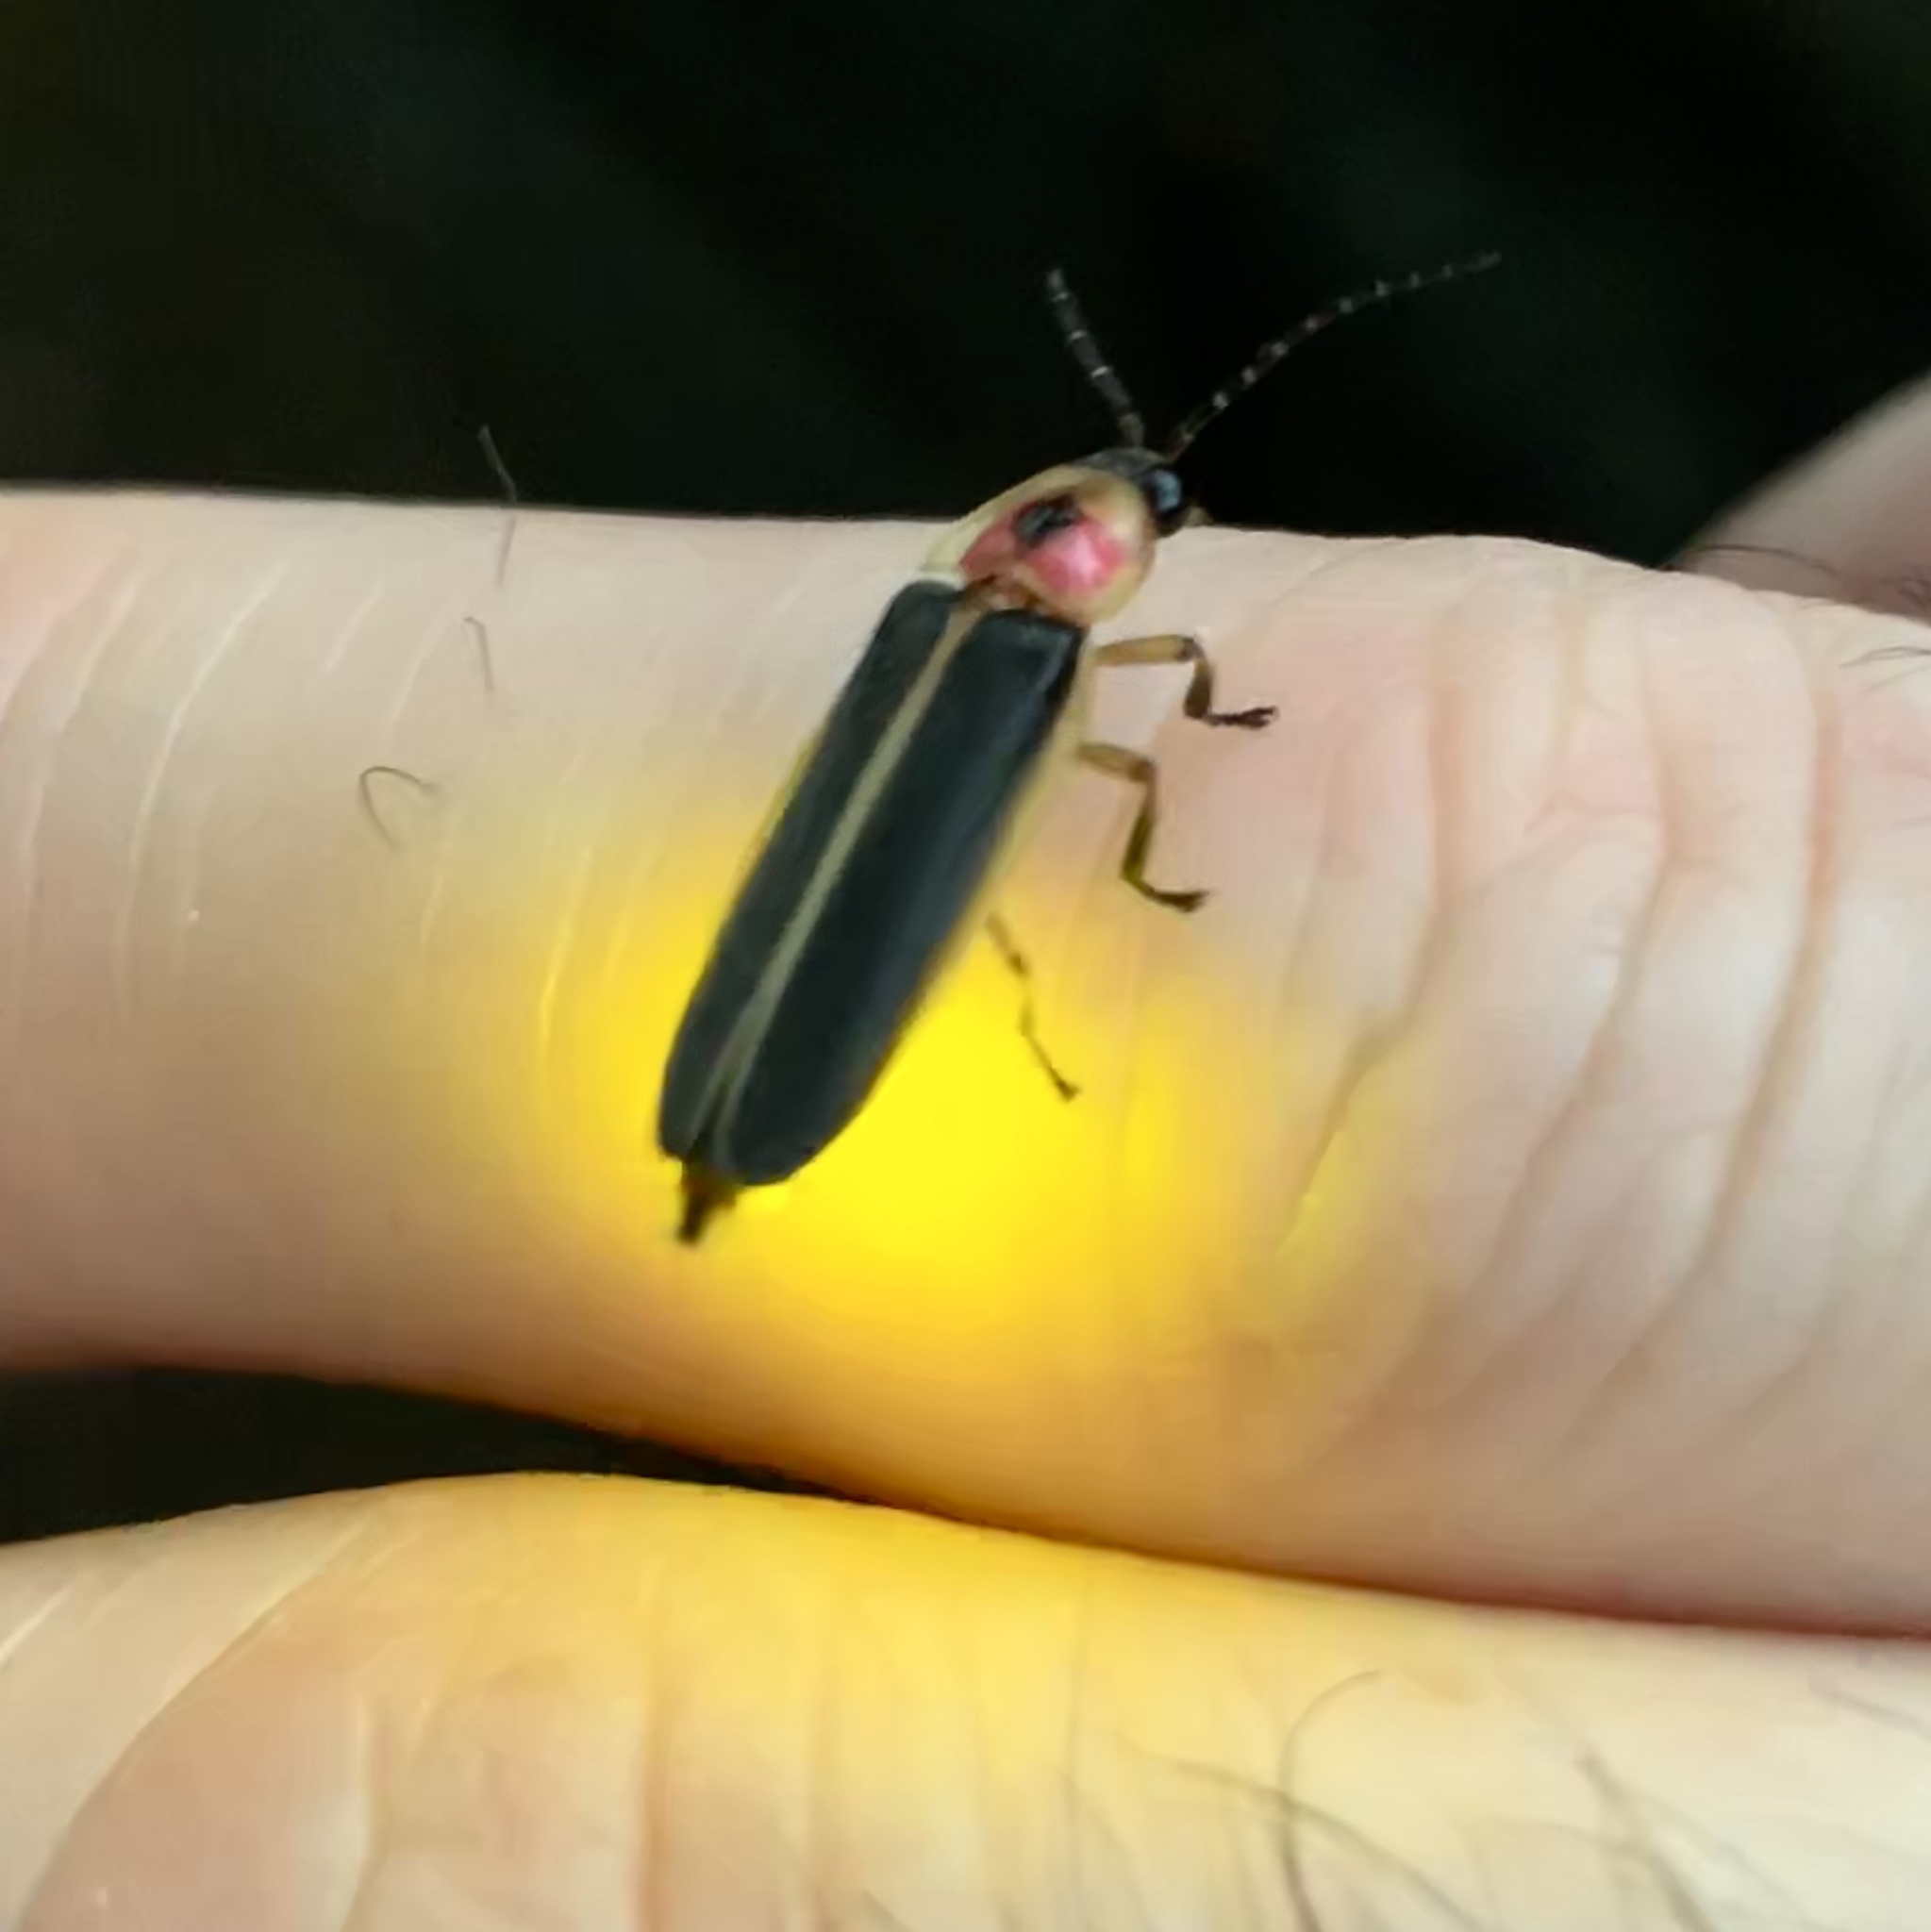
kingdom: Animalia
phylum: Arthropoda
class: Insecta
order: Coleoptera
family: Lampyridae
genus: Photinus
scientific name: Photinus pyralis
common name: Big dipper firefly
